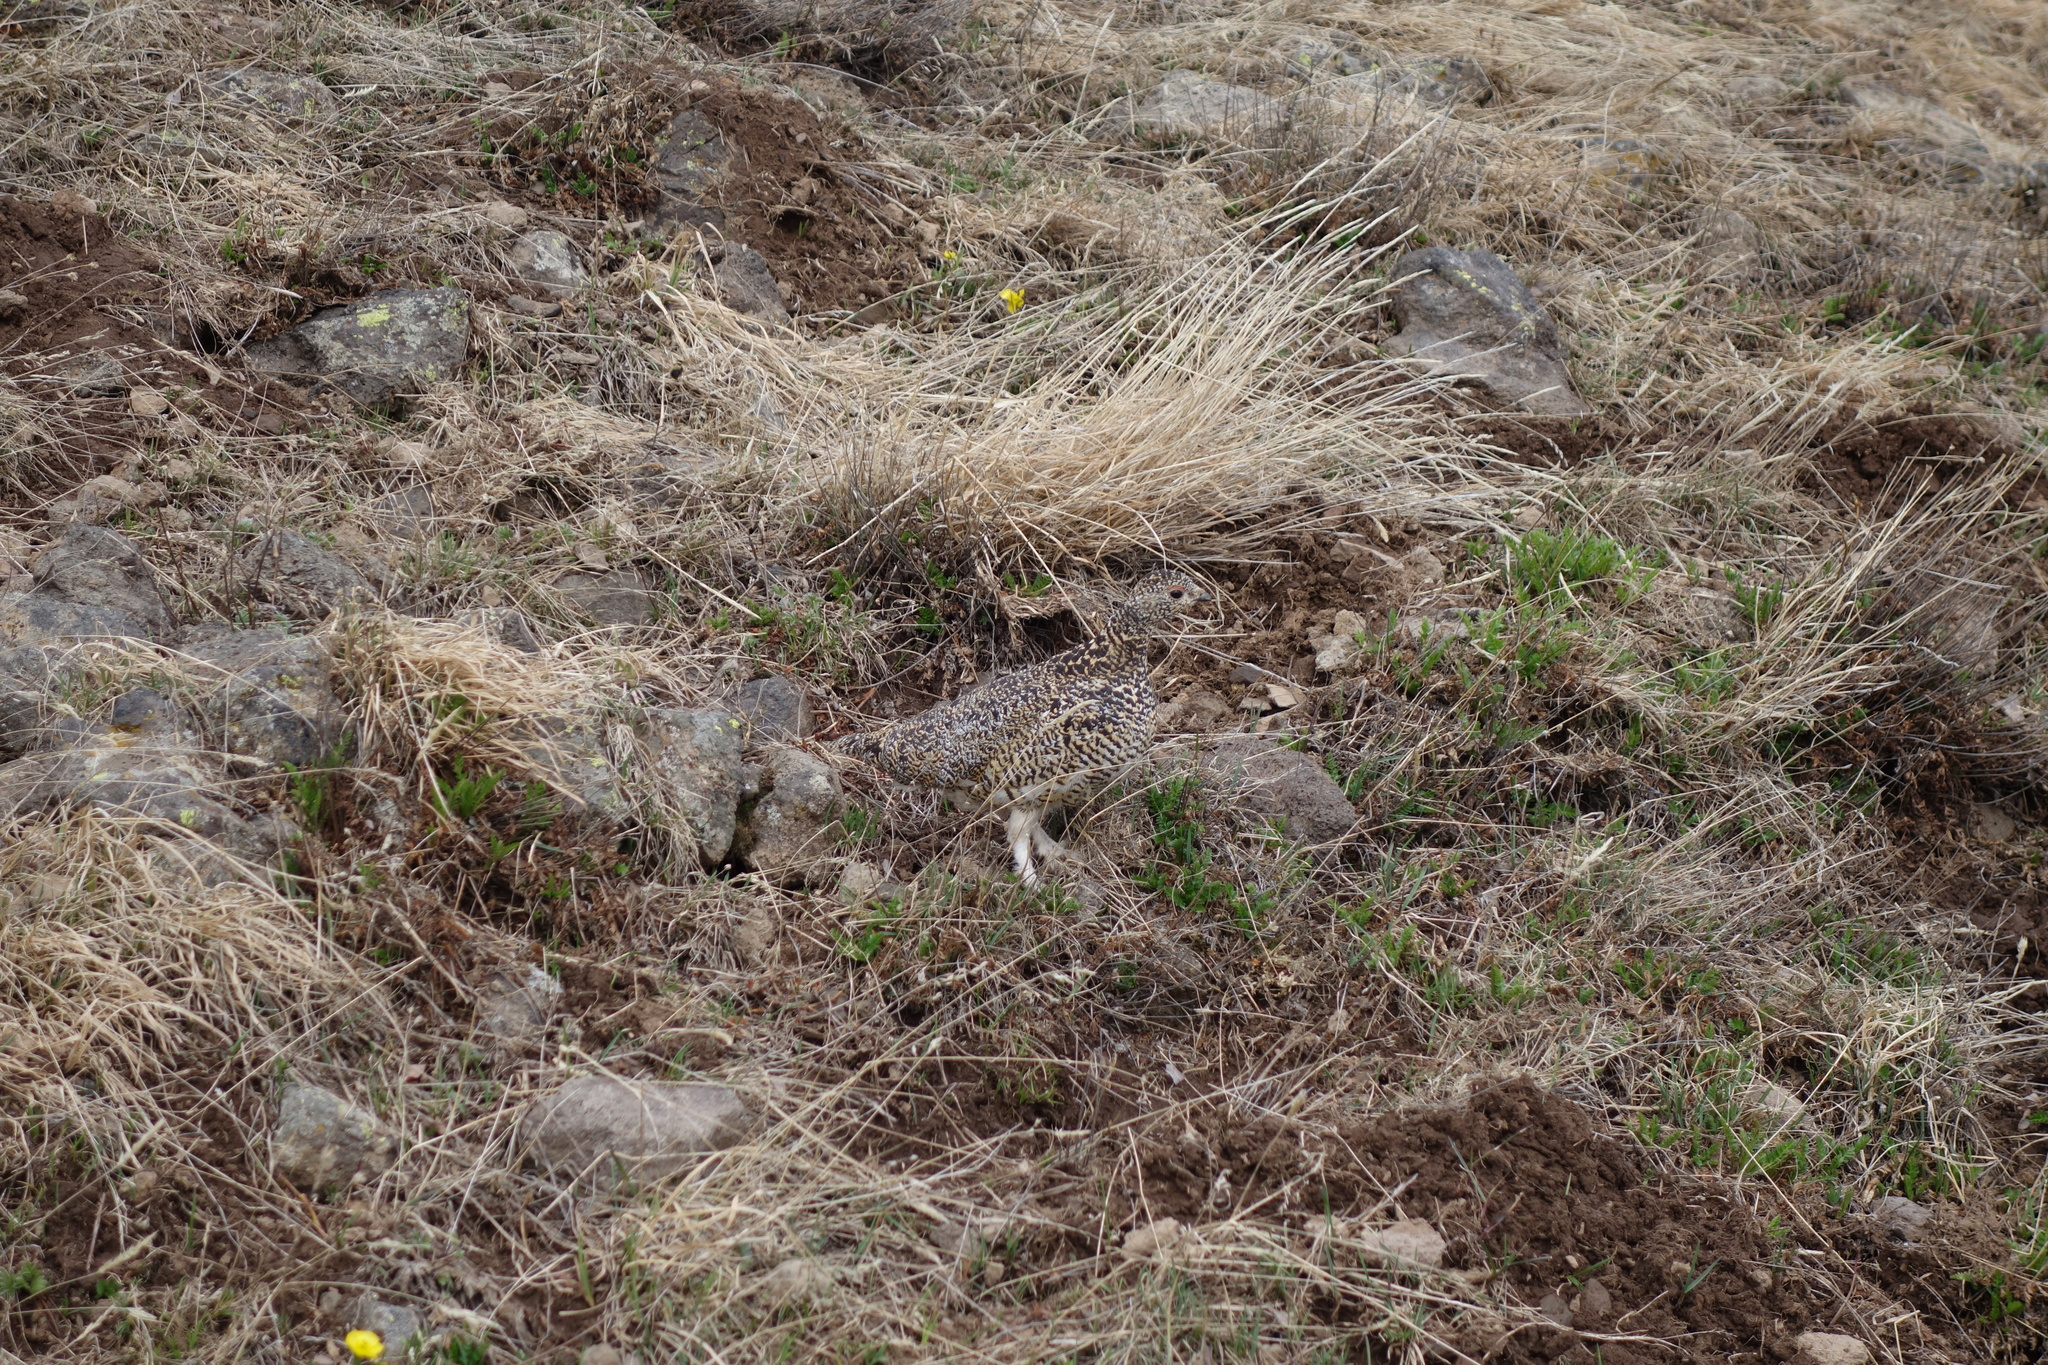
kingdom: Animalia
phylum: Chordata
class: Aves
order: Galliformes
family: Phasianidae
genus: Lagopus
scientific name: Lagopus leucura
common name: White-tailed ptarmigan
